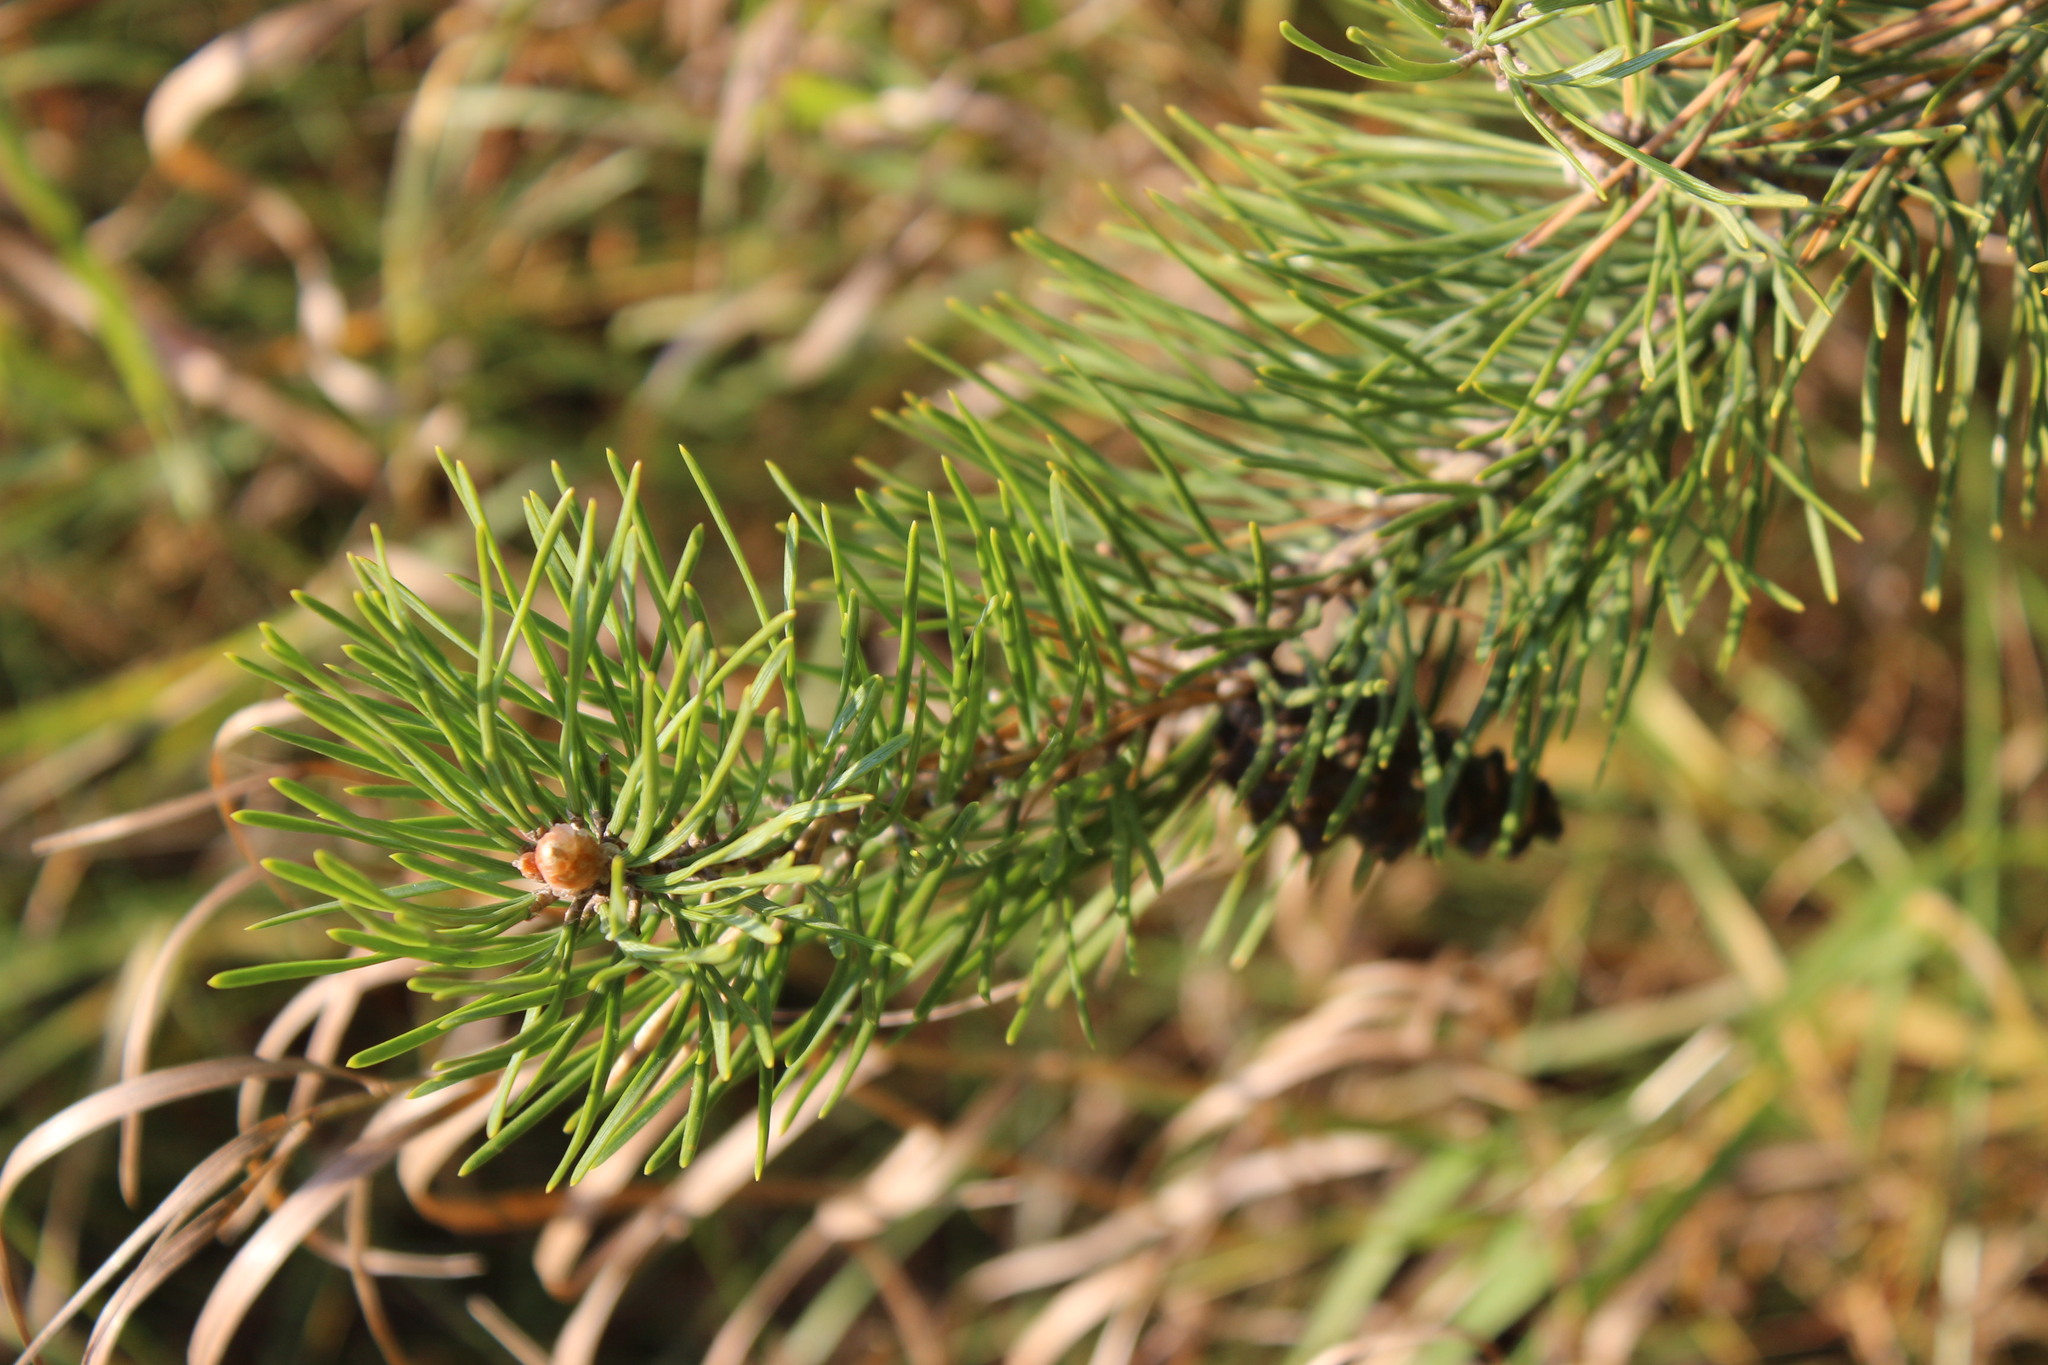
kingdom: Plantae
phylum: Tracheophyta
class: Pinopsida
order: Pinales
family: Pinaceae
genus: Pinus
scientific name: Pinus sylvestris
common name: Scots pine
